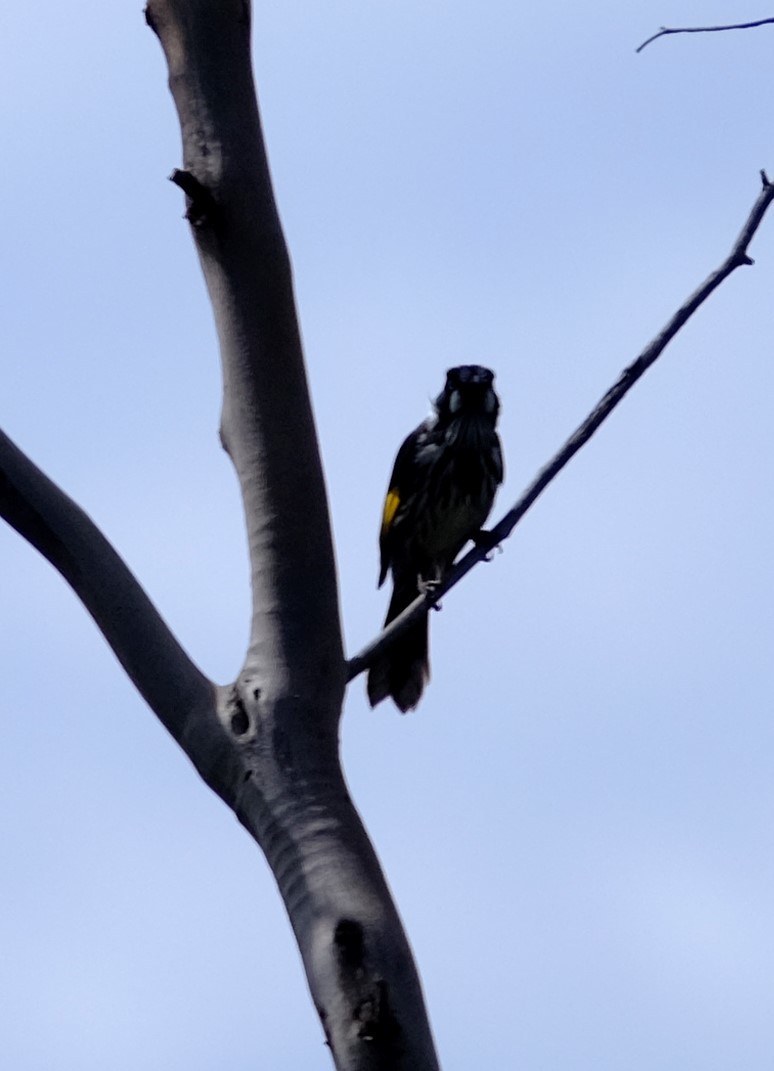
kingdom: Animalia
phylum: Chordata
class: Aves
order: Passeriformes
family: Meliphagidae
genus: Phylidonyris
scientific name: Phylidonyris novaehollandiae
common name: New holland honeyeater
